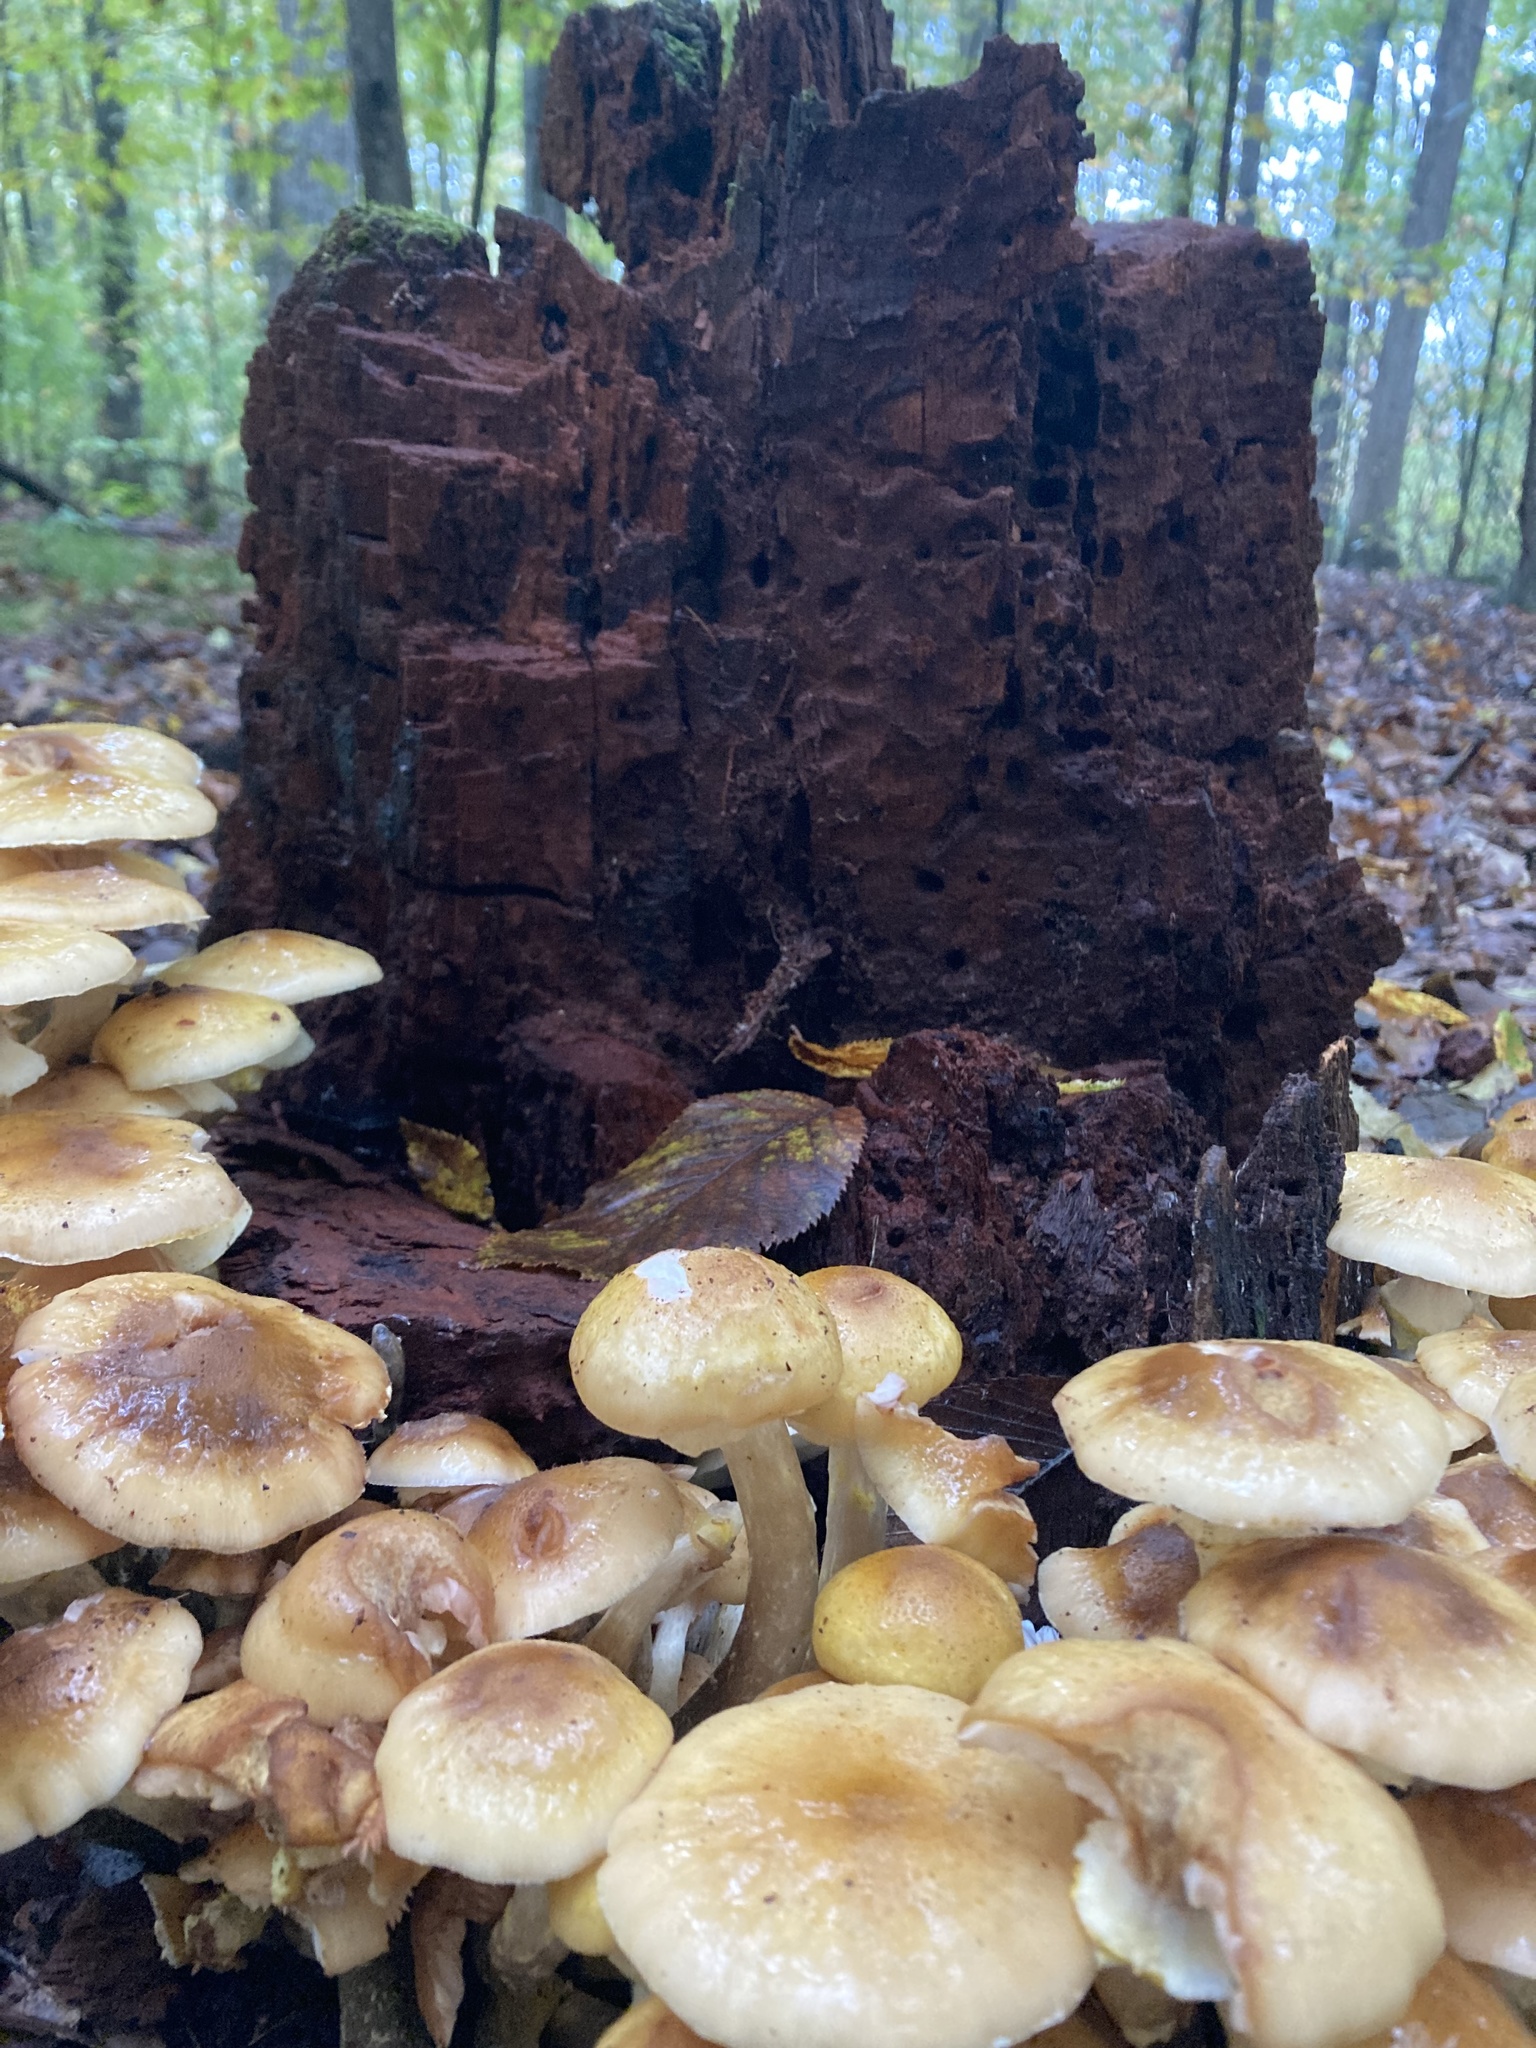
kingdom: Fungi
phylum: Basidiomycota
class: Agaricomycetes
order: Agaricales
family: Physalacriaceae
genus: Armillaria
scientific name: Armillaria mellea
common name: Honey fungus
